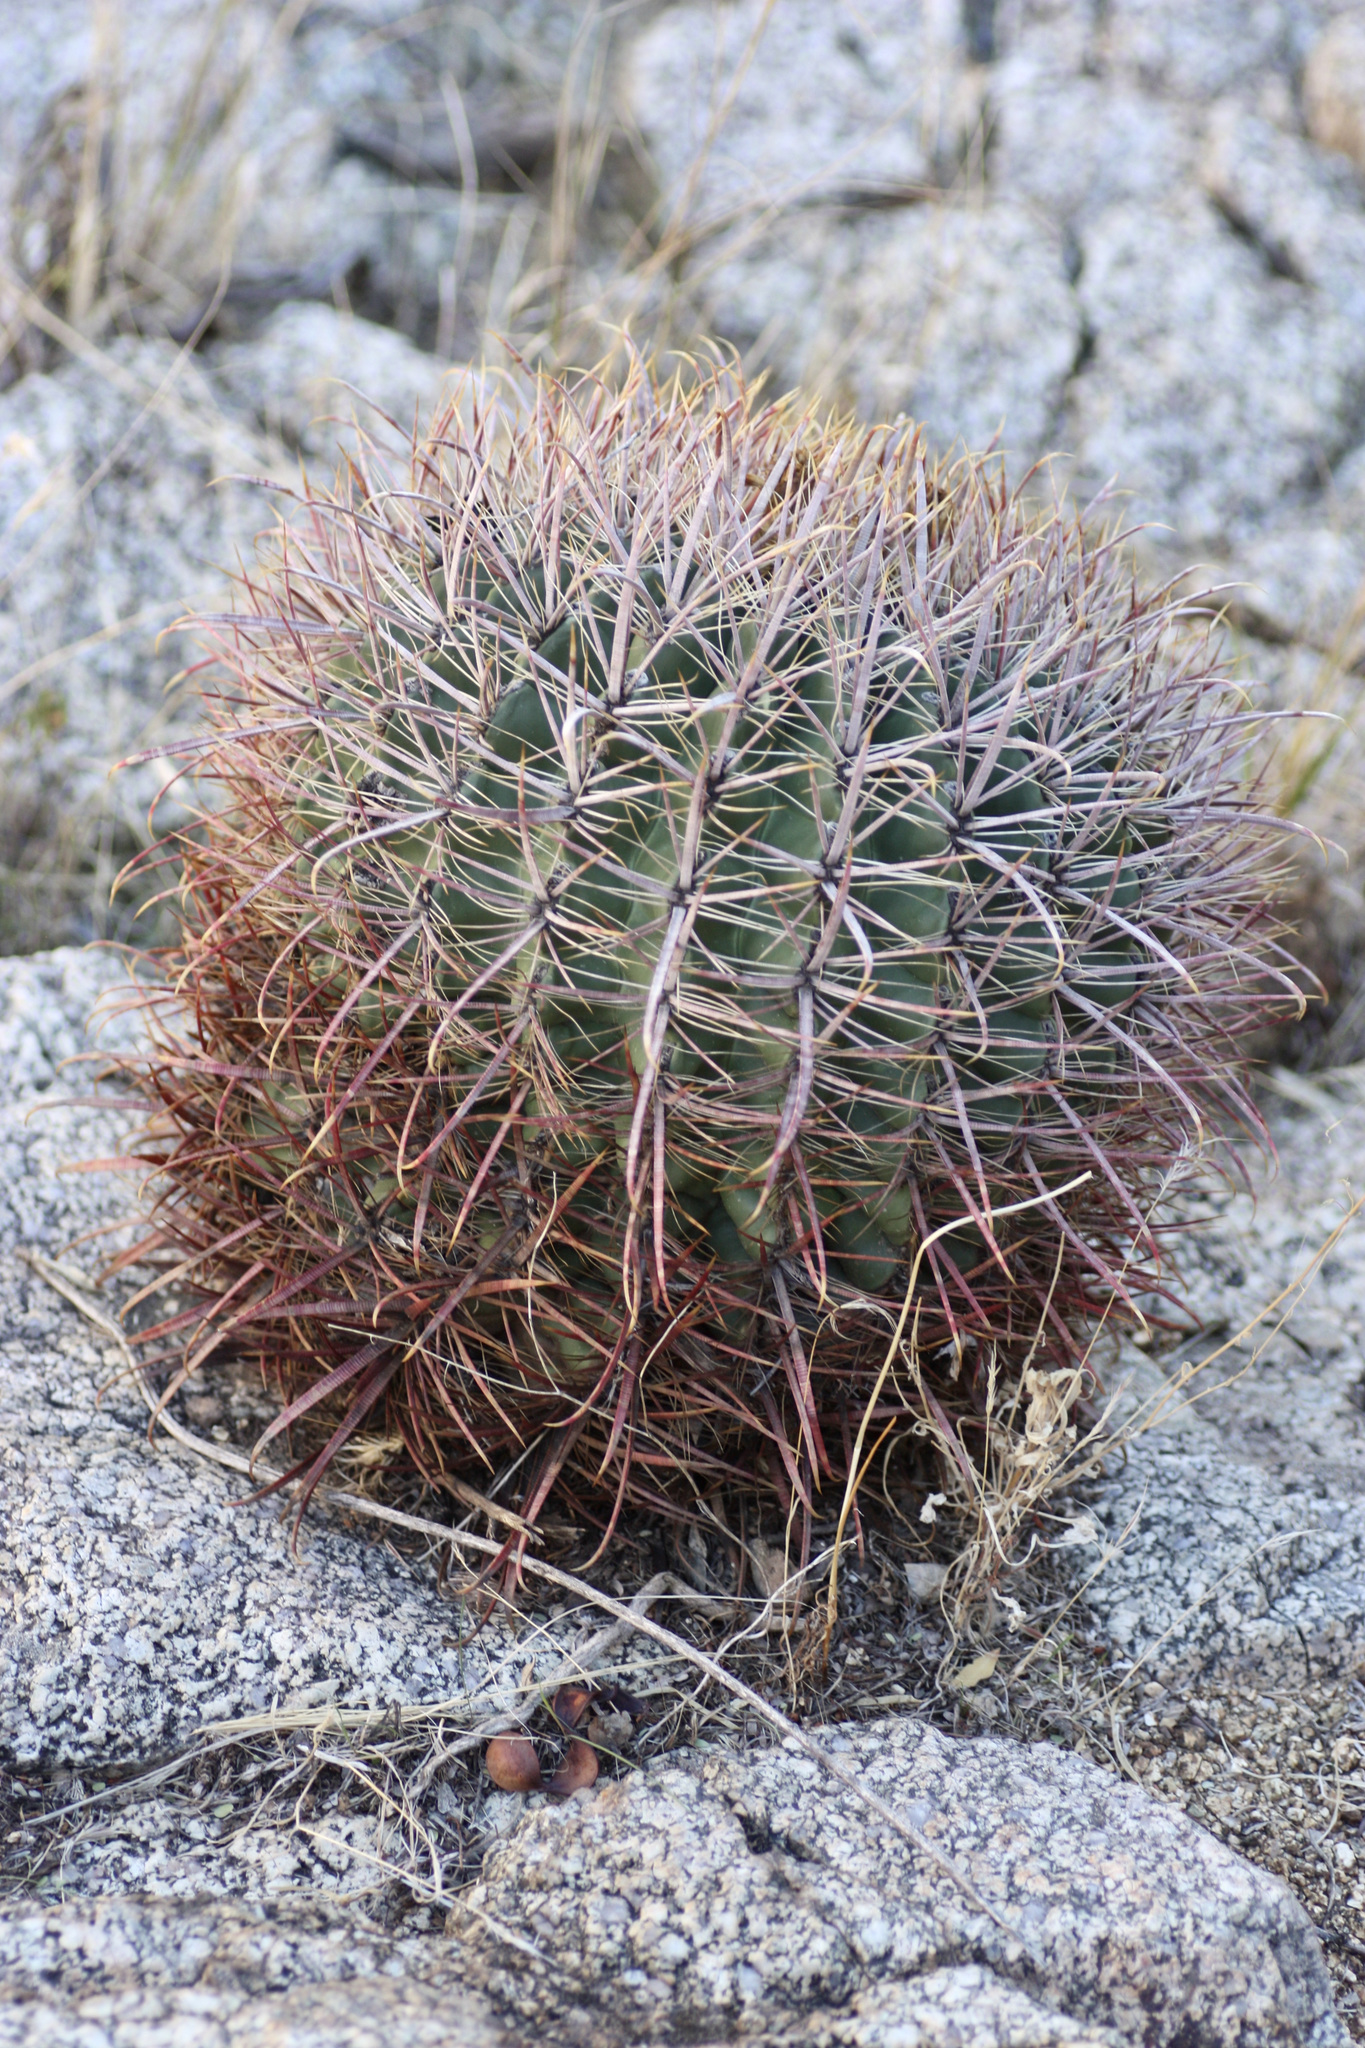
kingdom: Plantae
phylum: Tracheophyta
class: Magnoliopsida
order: Caryophyllales
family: Cactaceae
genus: Ferocactus
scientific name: Ferocactus cylindraceus
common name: California barrel cactus
